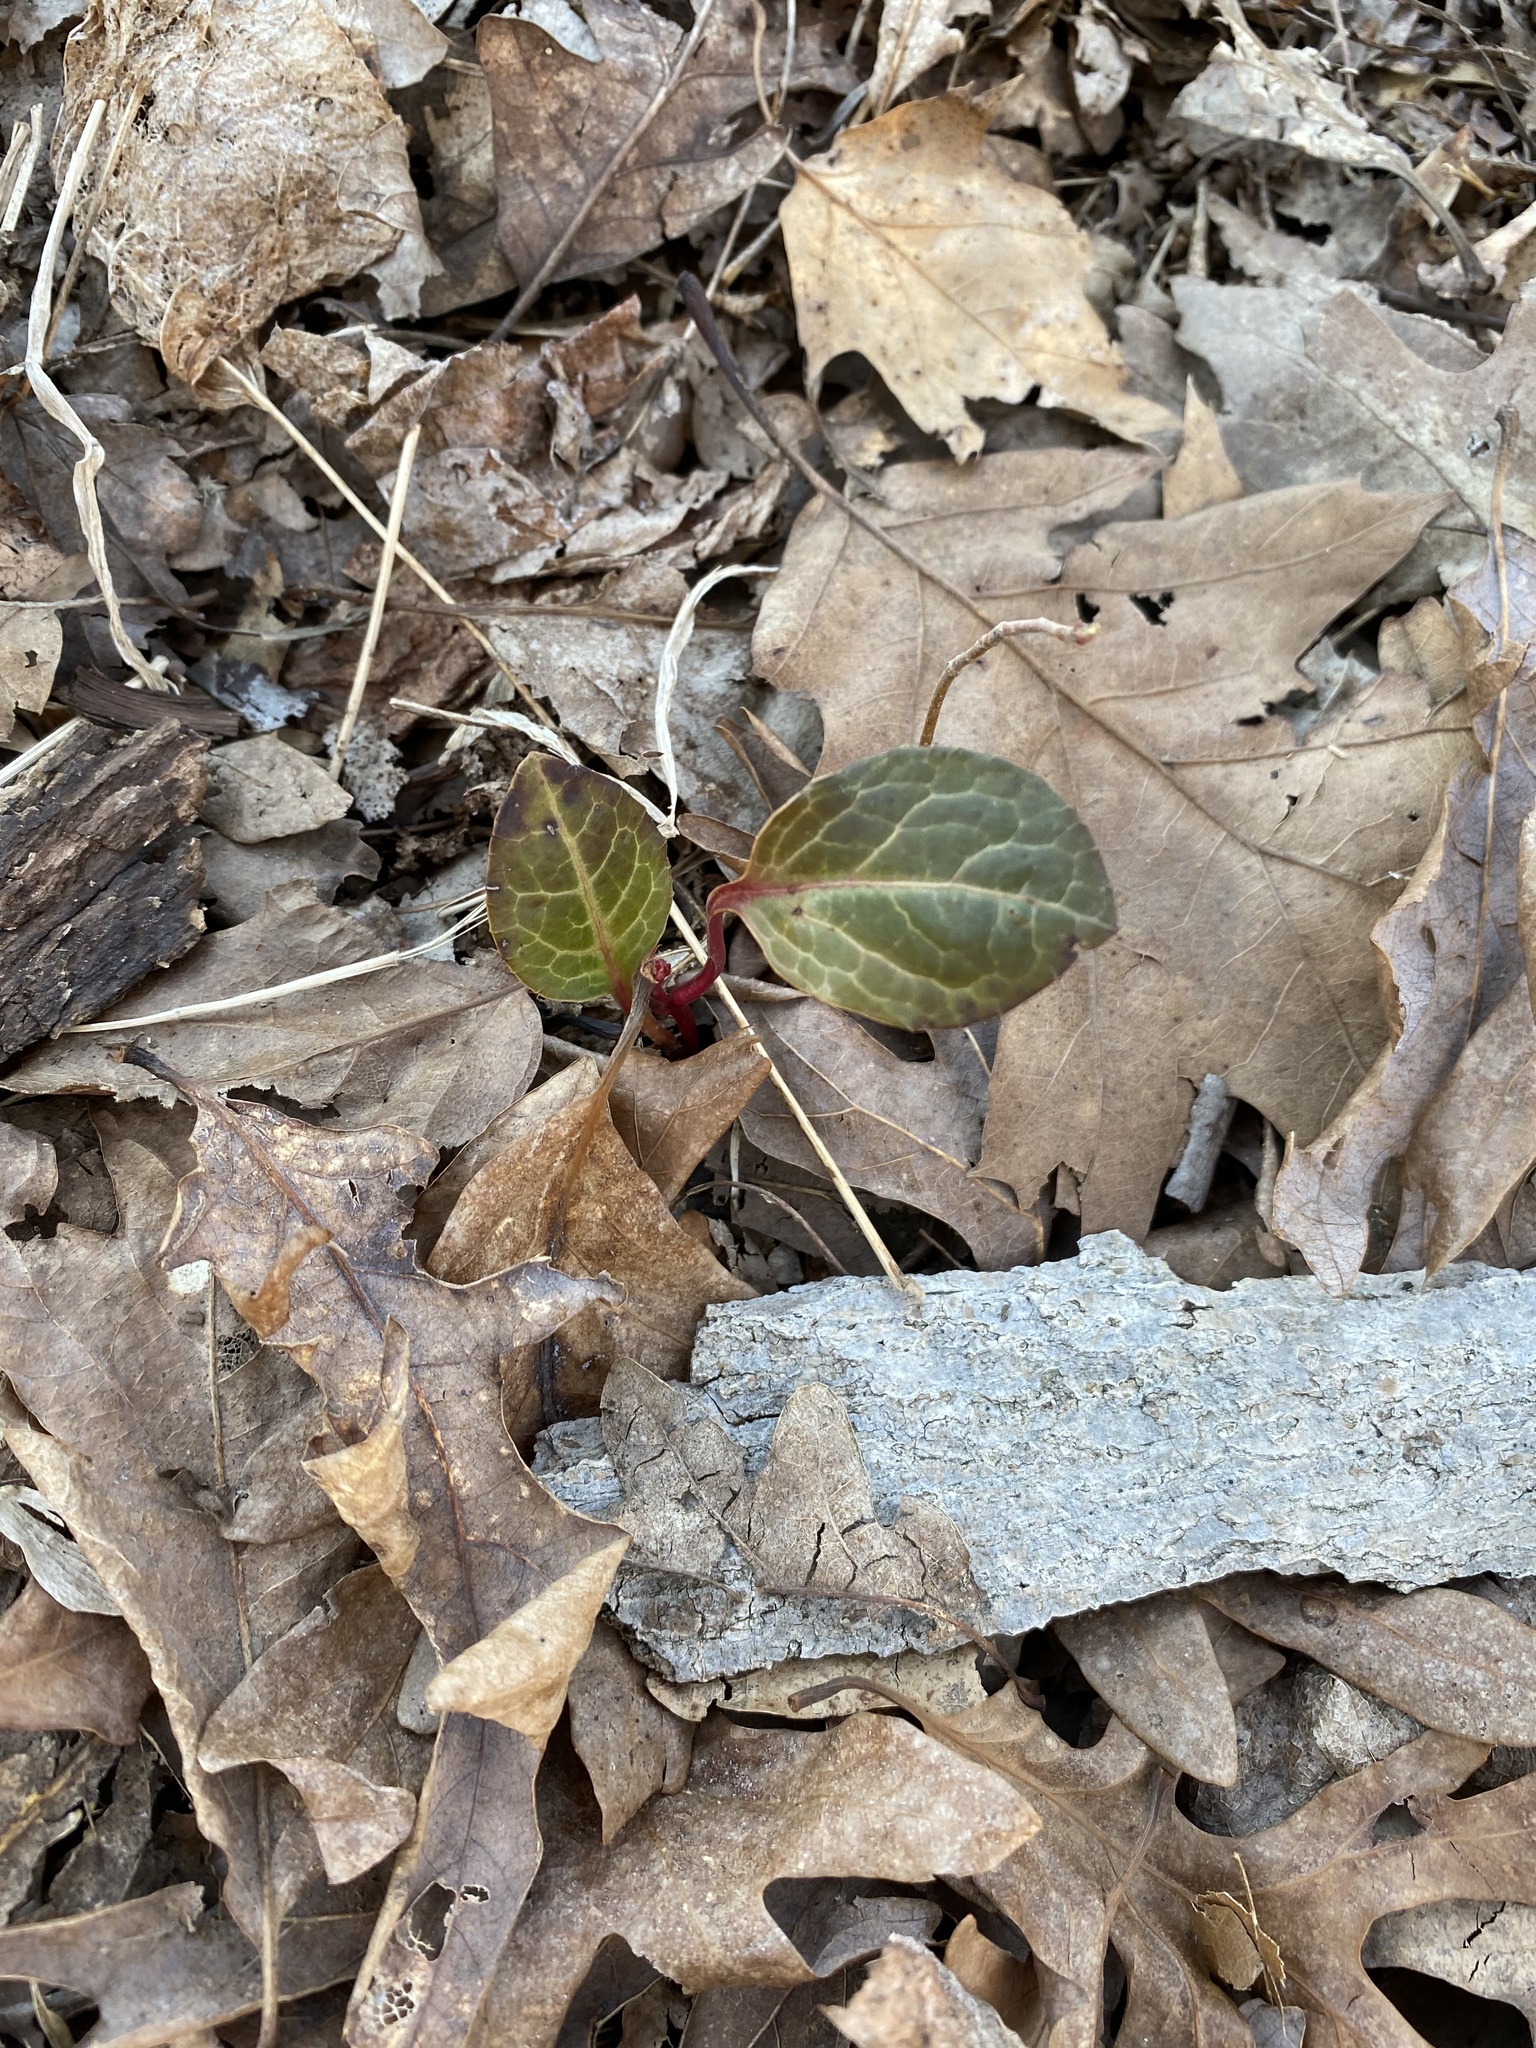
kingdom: Plantae
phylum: Tracheophyta
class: Magnoliopsida
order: Ericales
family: Ericaceae
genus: Pyrola
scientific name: Pyrola americana
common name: American wintergreen
